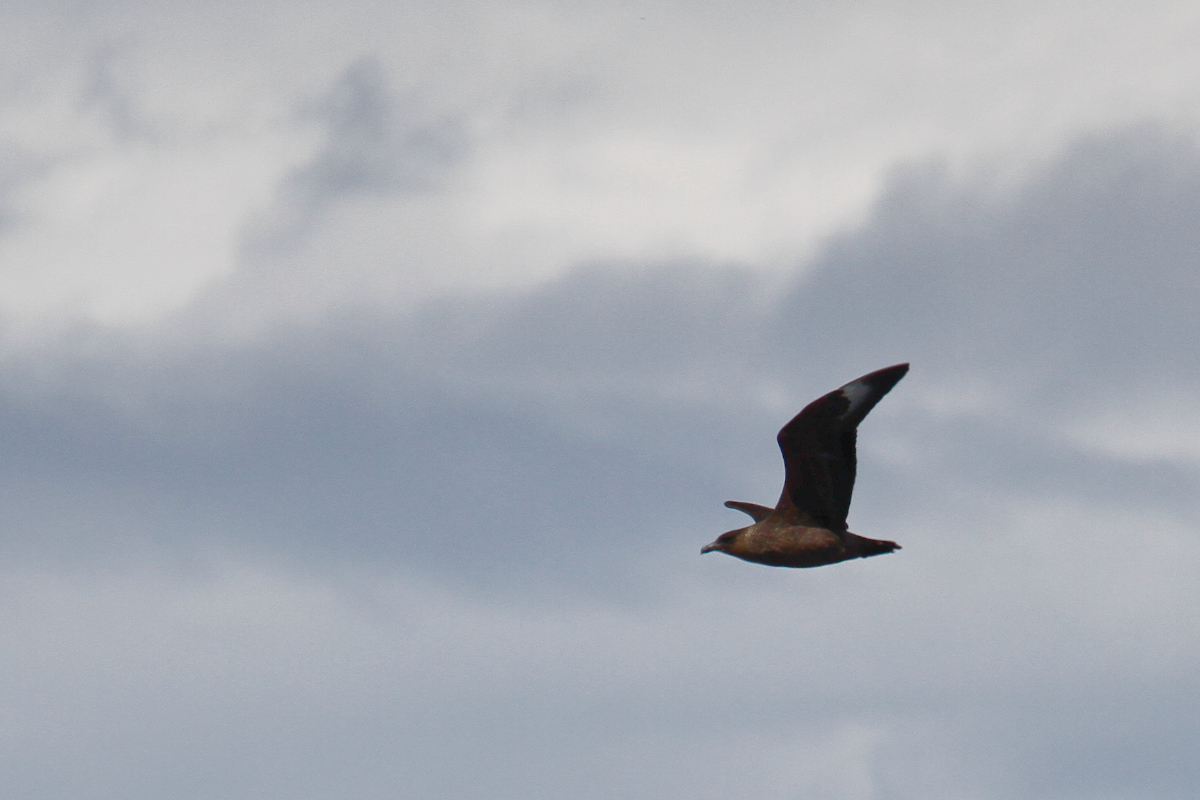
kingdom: Animalia
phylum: Chordata
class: Aves
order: Charadriiformes
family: Stercorariidae
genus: Stercorarius
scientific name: Stercorarius chilensis
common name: Chilean skua
